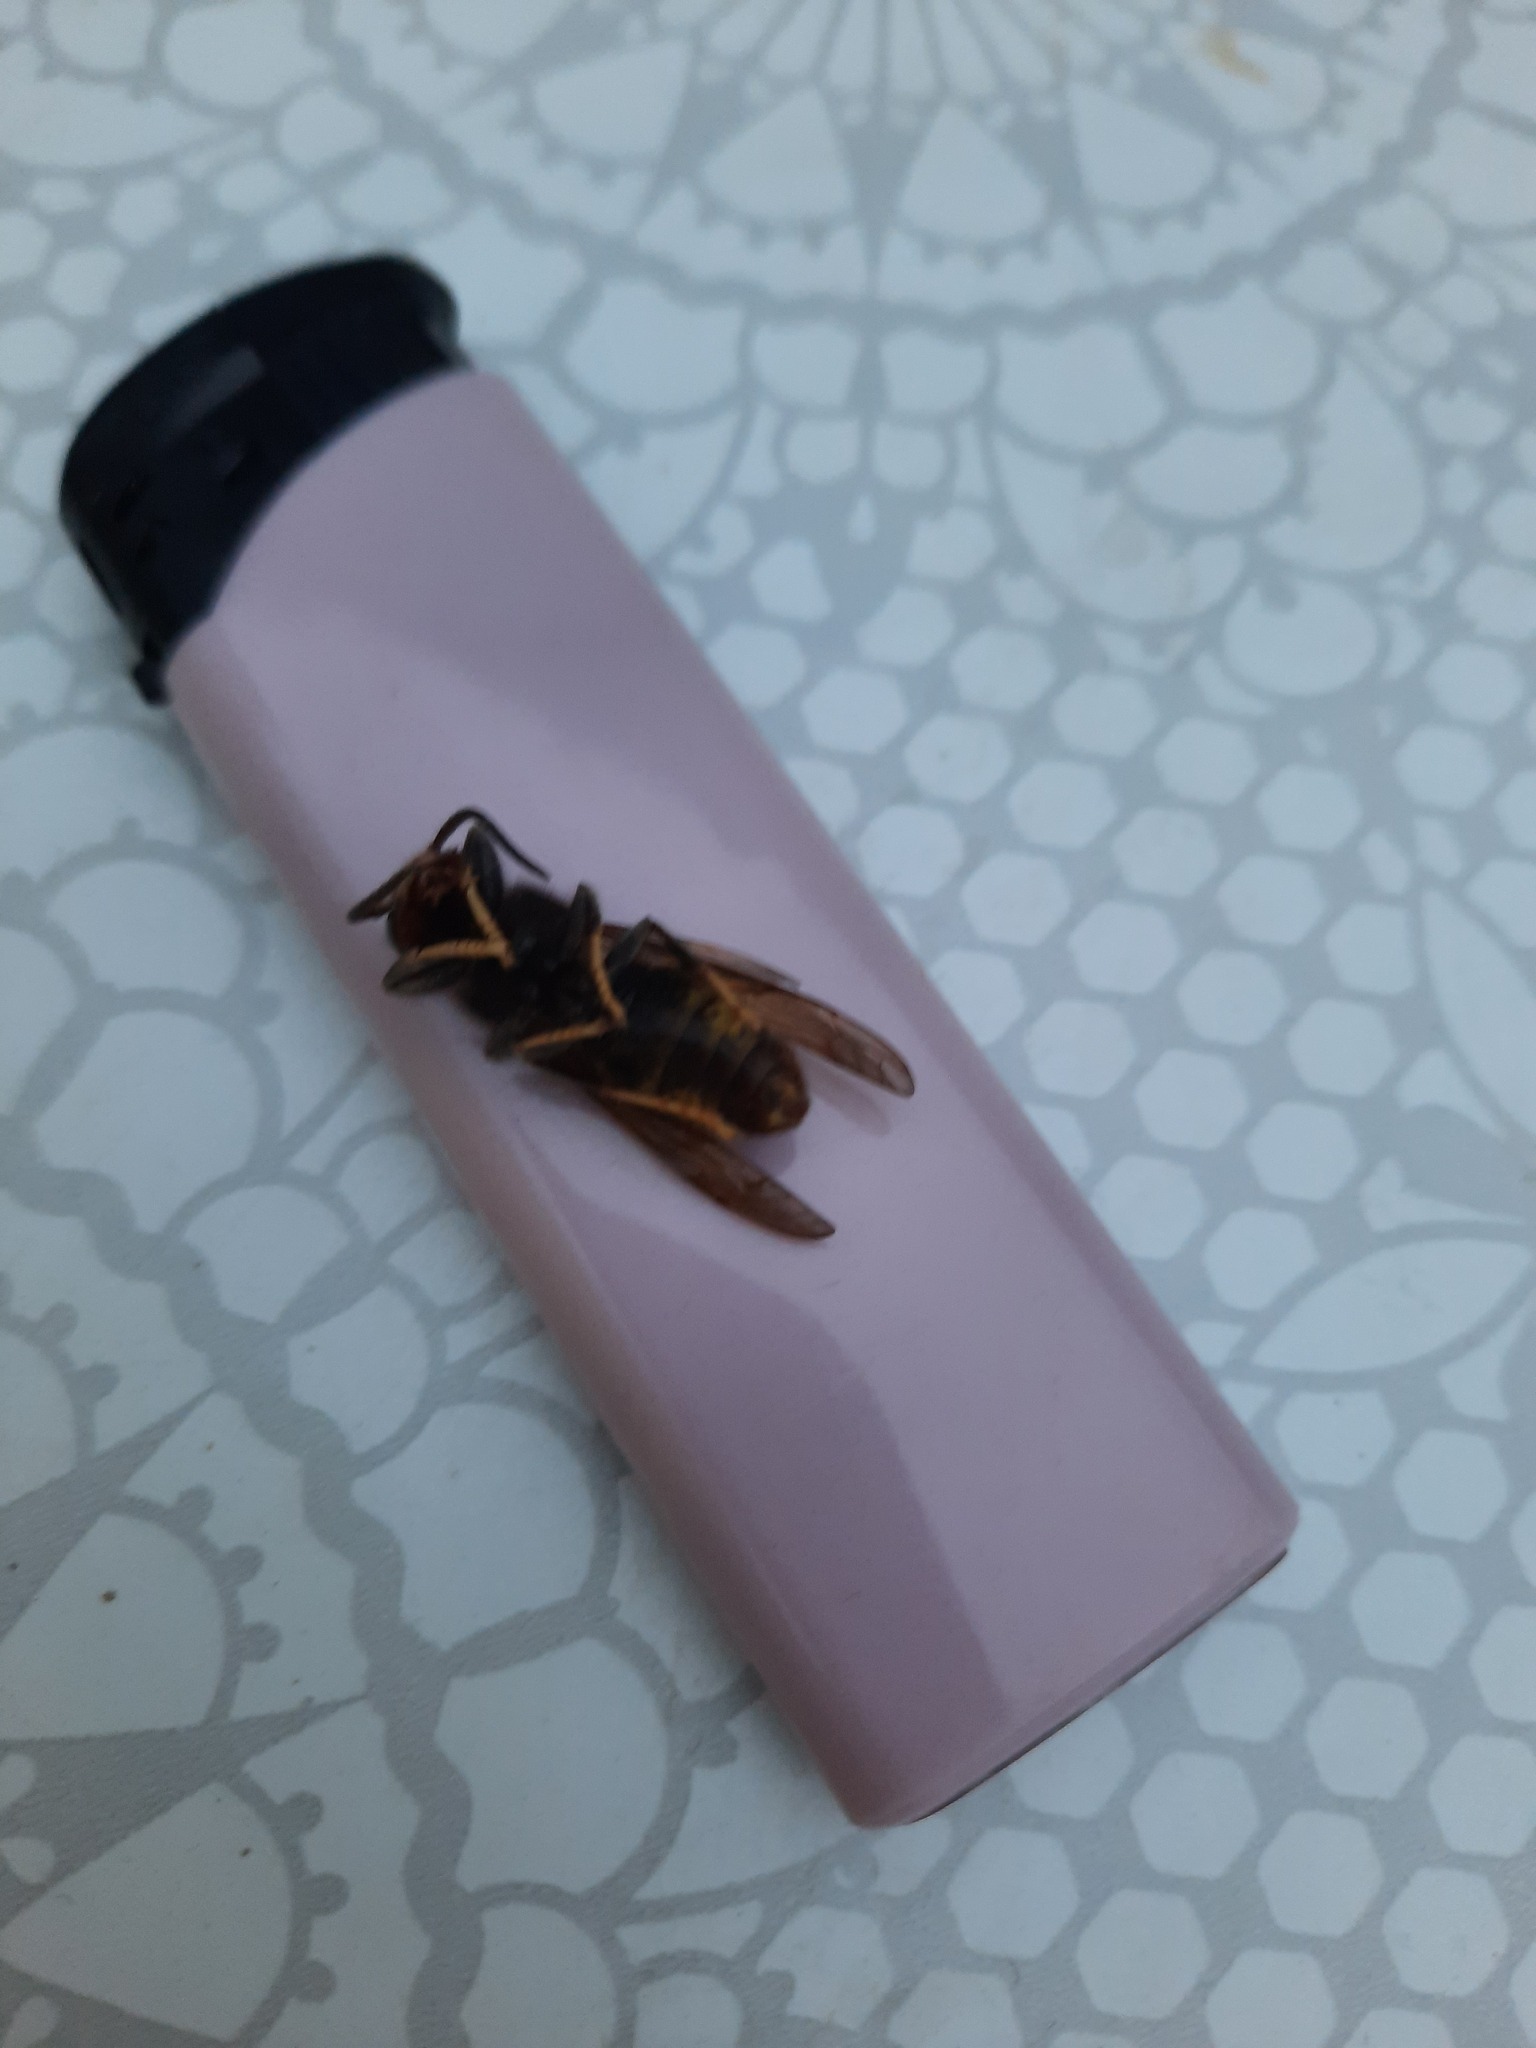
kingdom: Animalia
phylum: Arthropoda
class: Insecta
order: Hymenoptera
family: Vespidae
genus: Vespa
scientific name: Vespa velutina
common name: Asian hornet
